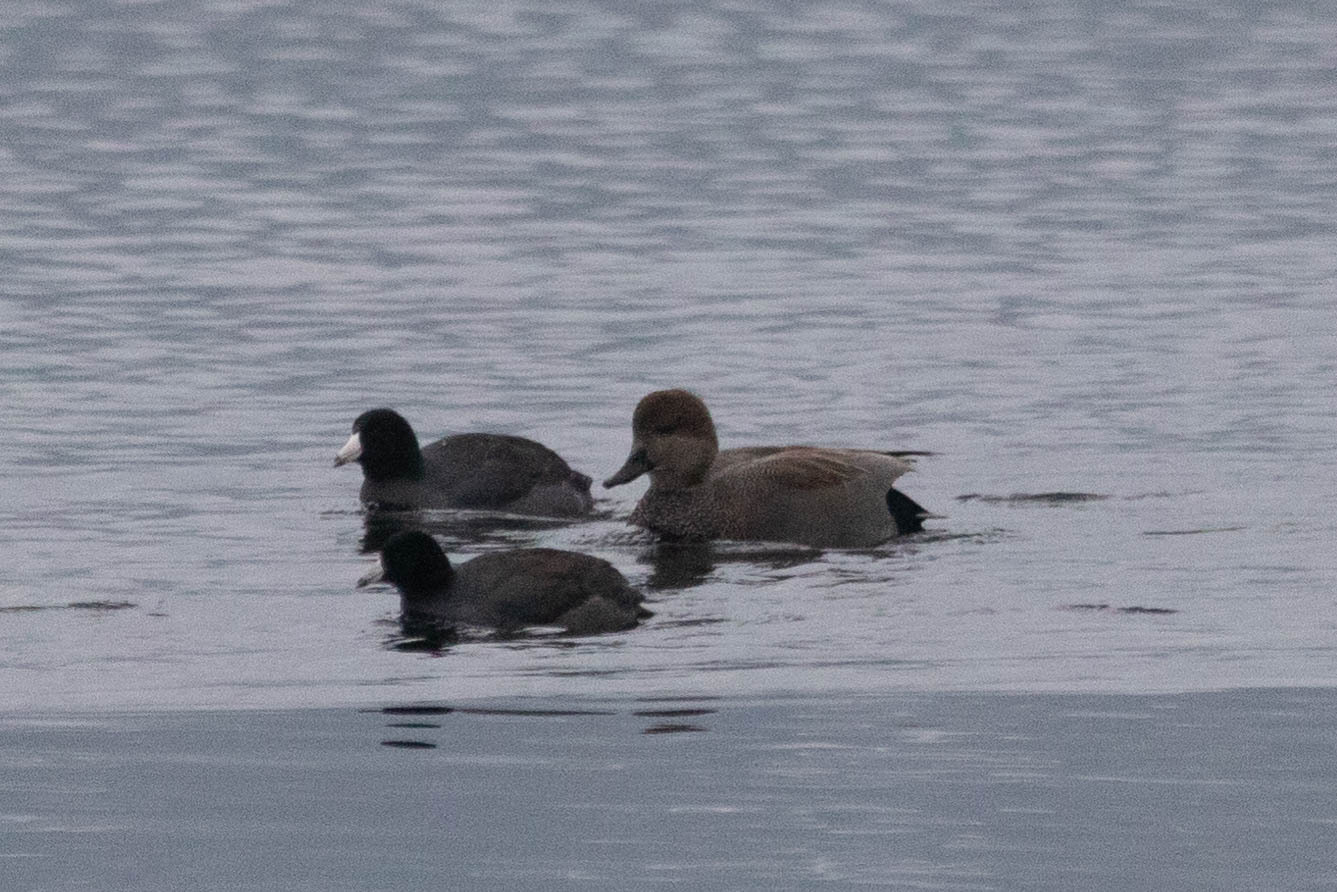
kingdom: Animalia
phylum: Chordata
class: Aves
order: Anseriformes
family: Anatidae
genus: Mareca
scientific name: Mareca strepera
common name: Gadwall
